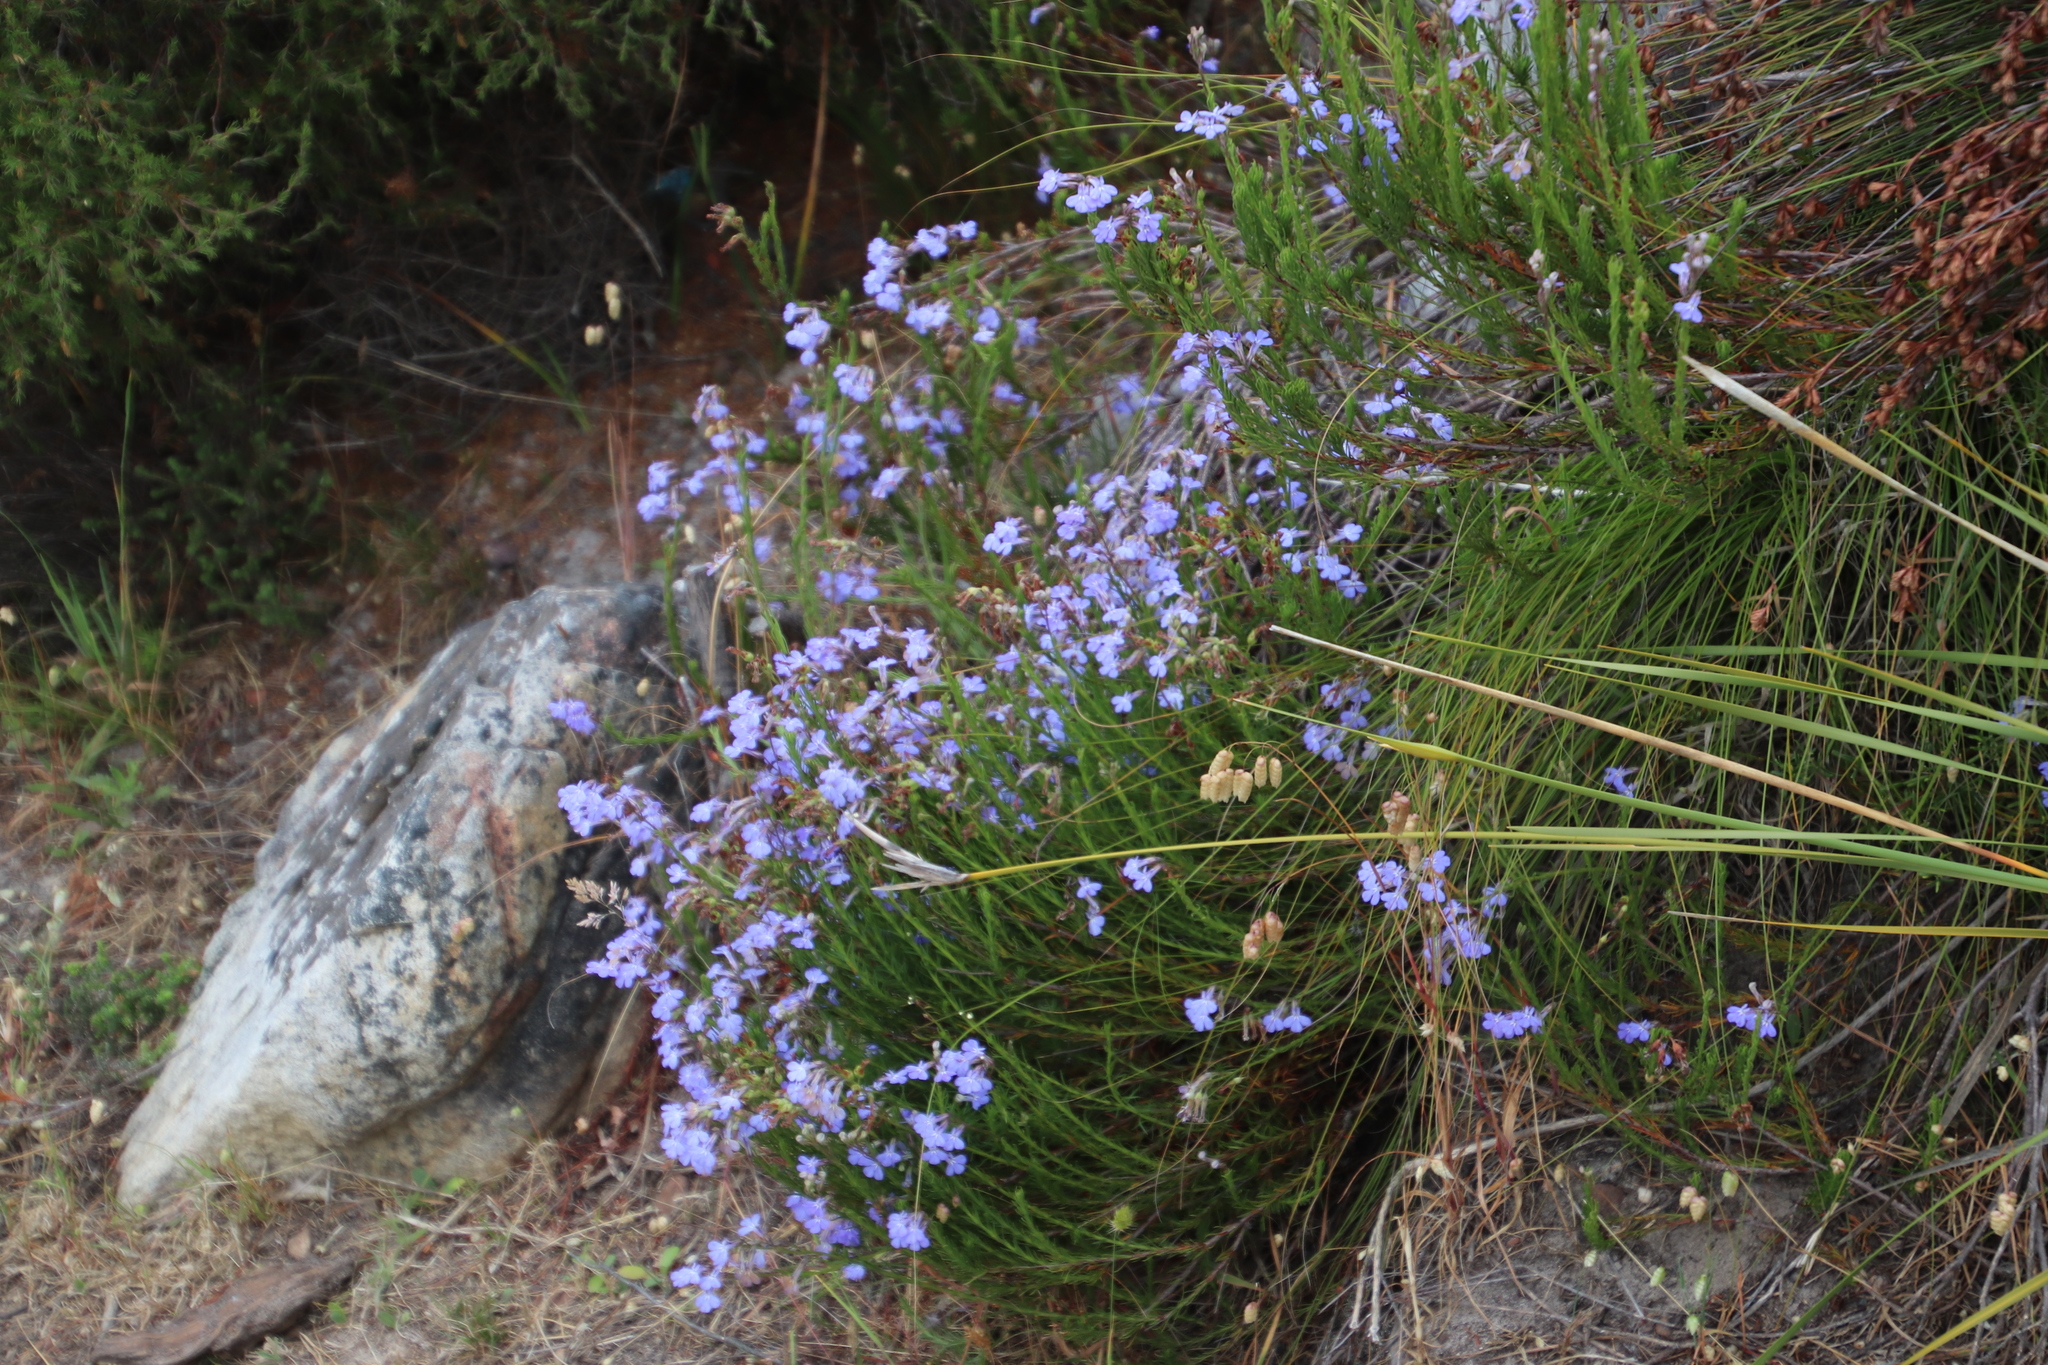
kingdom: Plantae
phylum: Tracheophyta
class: Magnoliopsida
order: Asterales
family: Campanulaceae
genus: Lobelia
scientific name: Lobelia pinifolia
